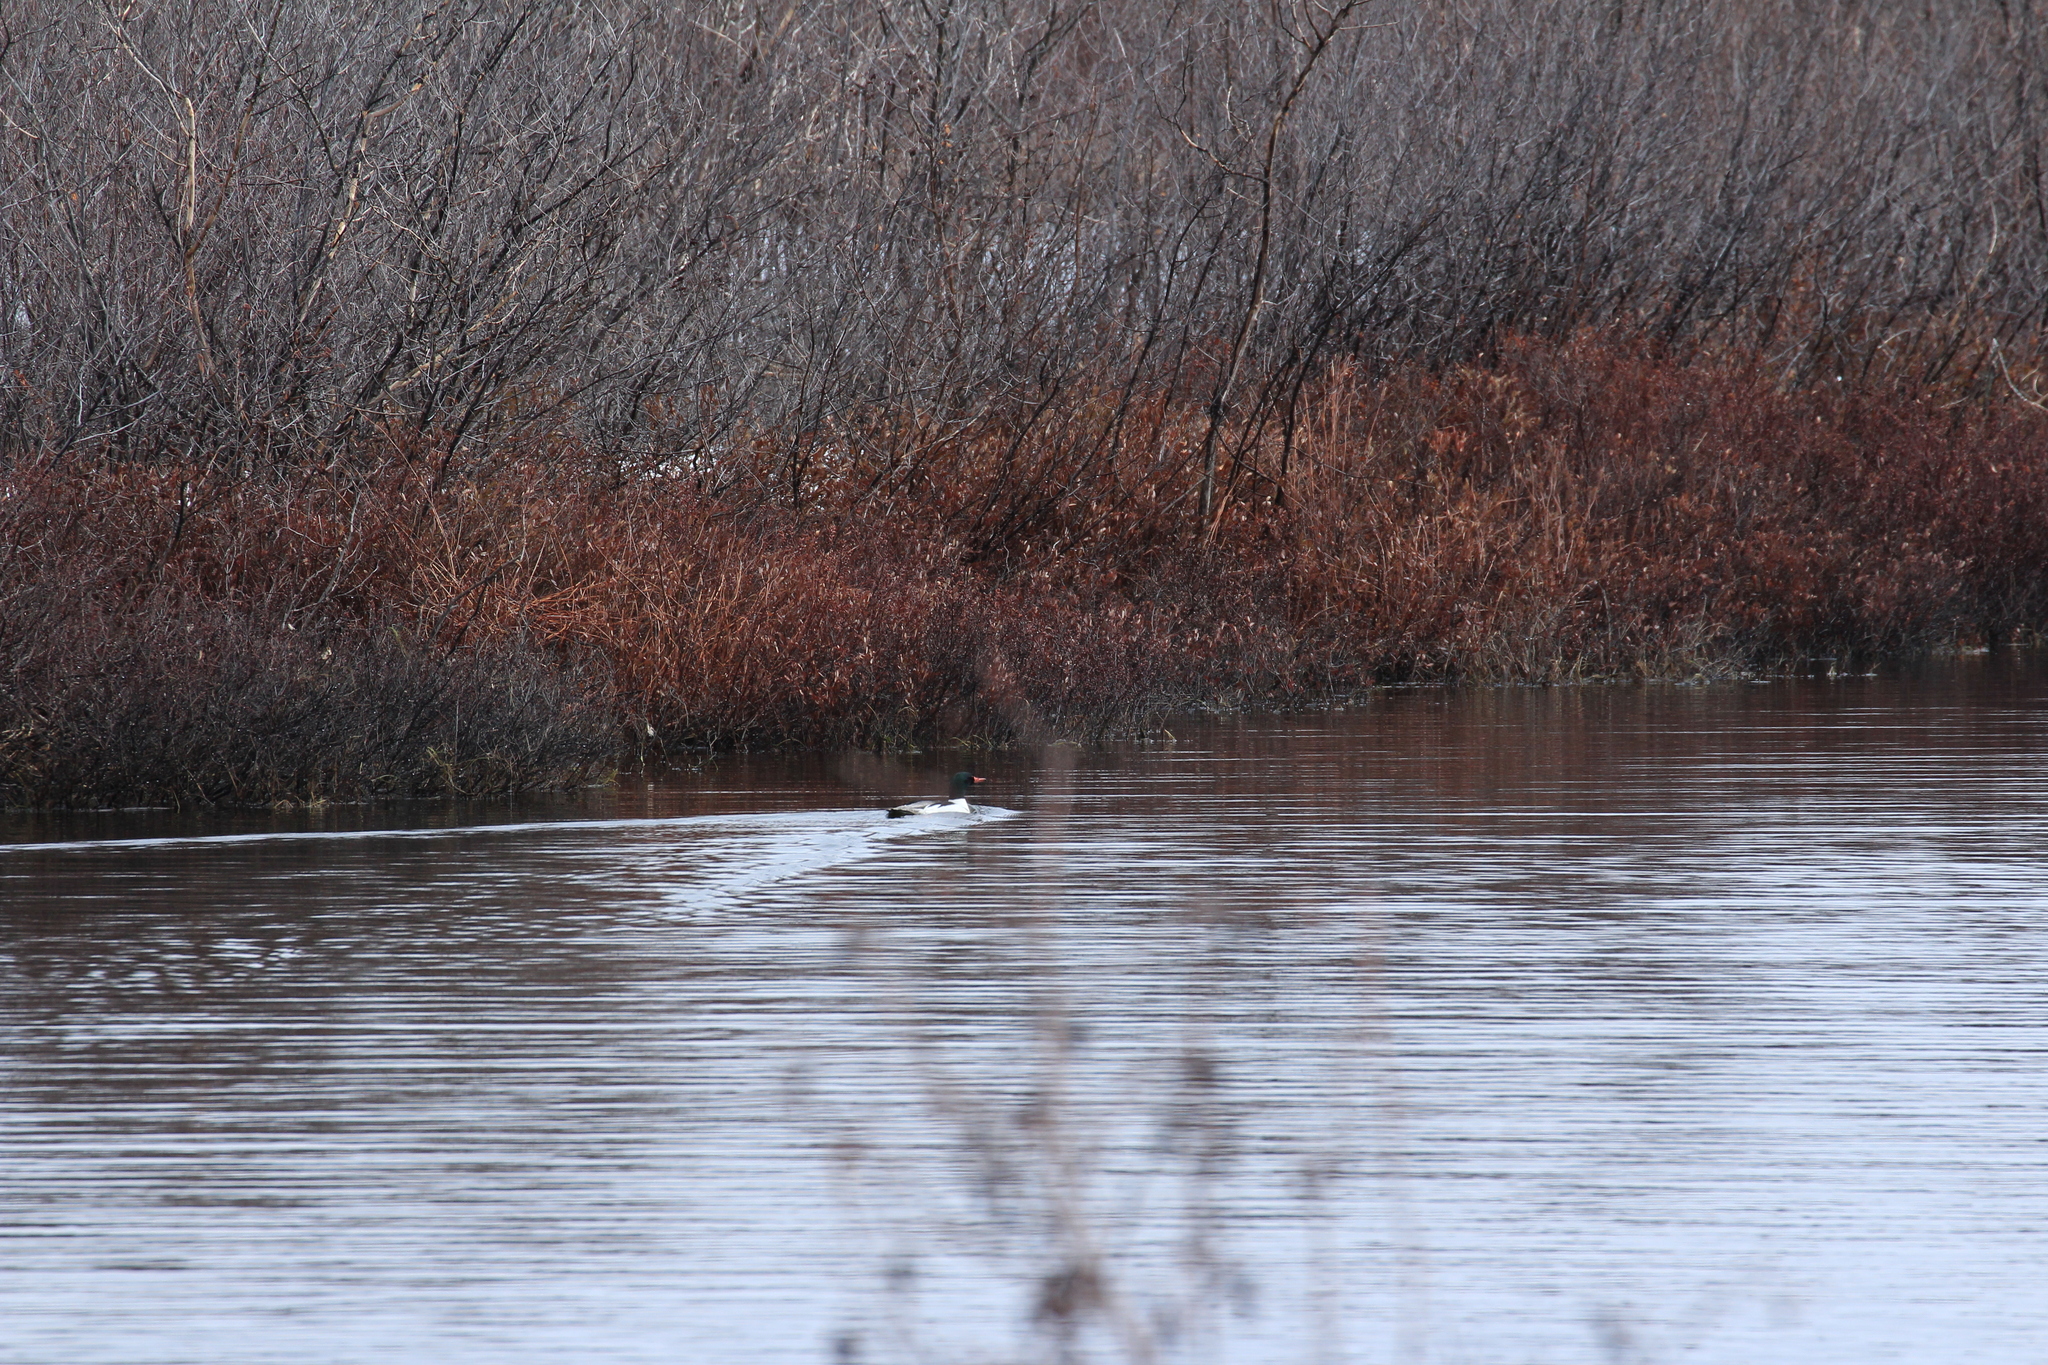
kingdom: Animalia
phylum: Chordata
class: Aves
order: Anseriformes
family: Anatidae
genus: Mergus
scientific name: Mergus merganser
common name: Common merganser
